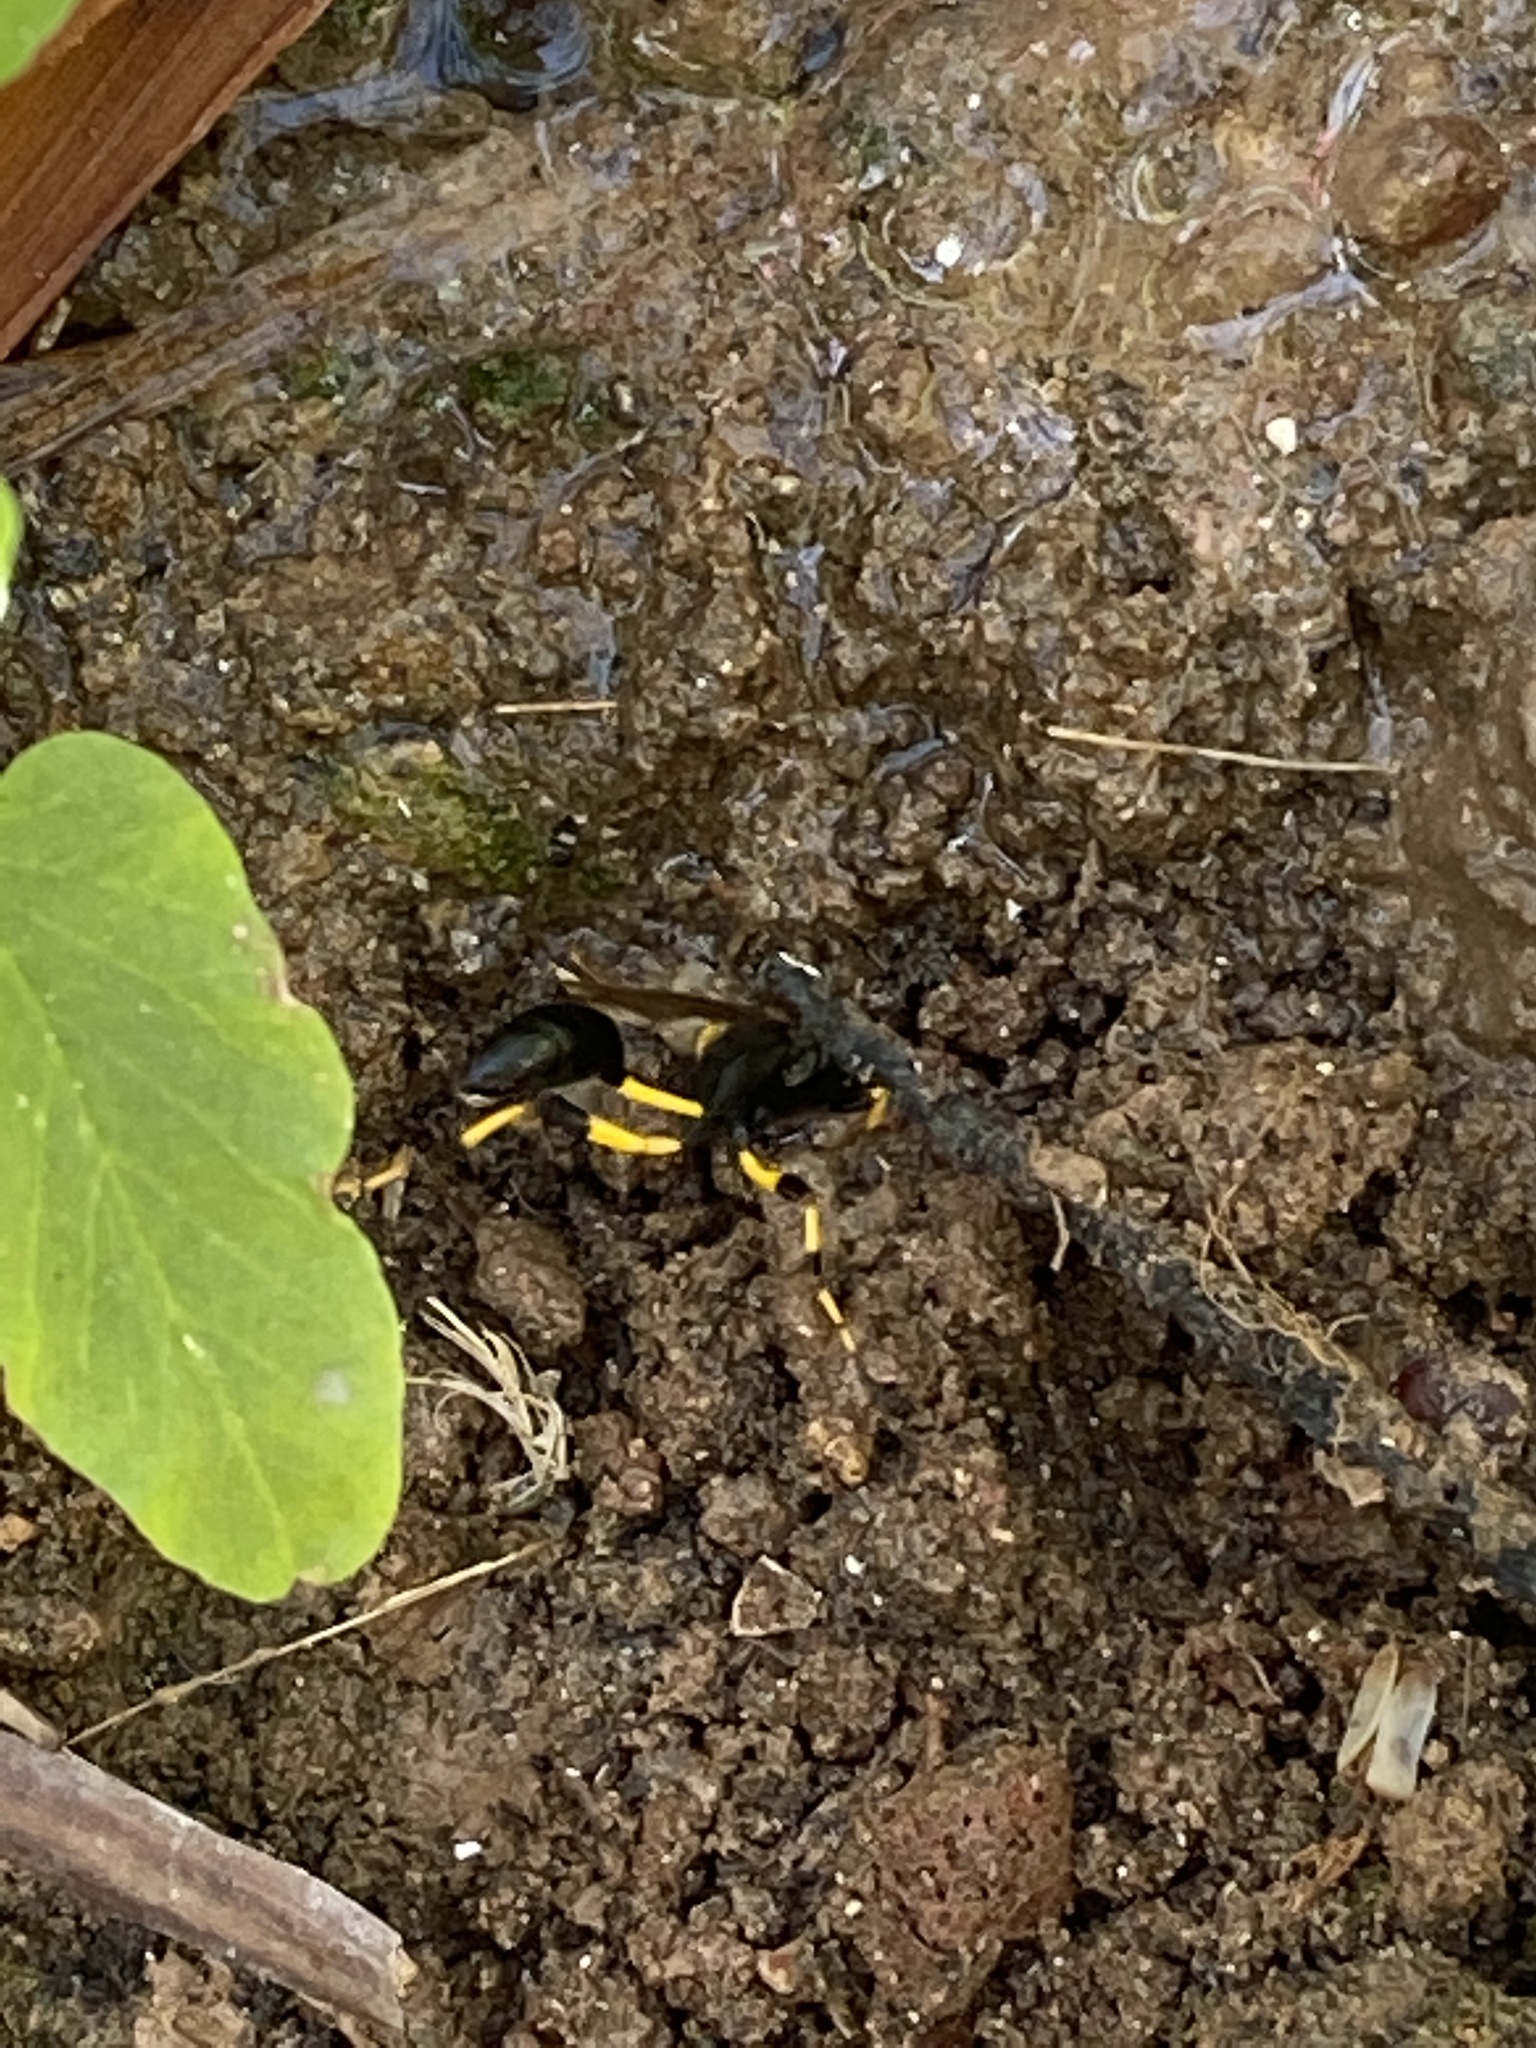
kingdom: Animalia
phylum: Arthropoda
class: Insecta
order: Hymenoptera
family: Sphecidae
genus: Sceliphron
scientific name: Sceliphron spirifex
